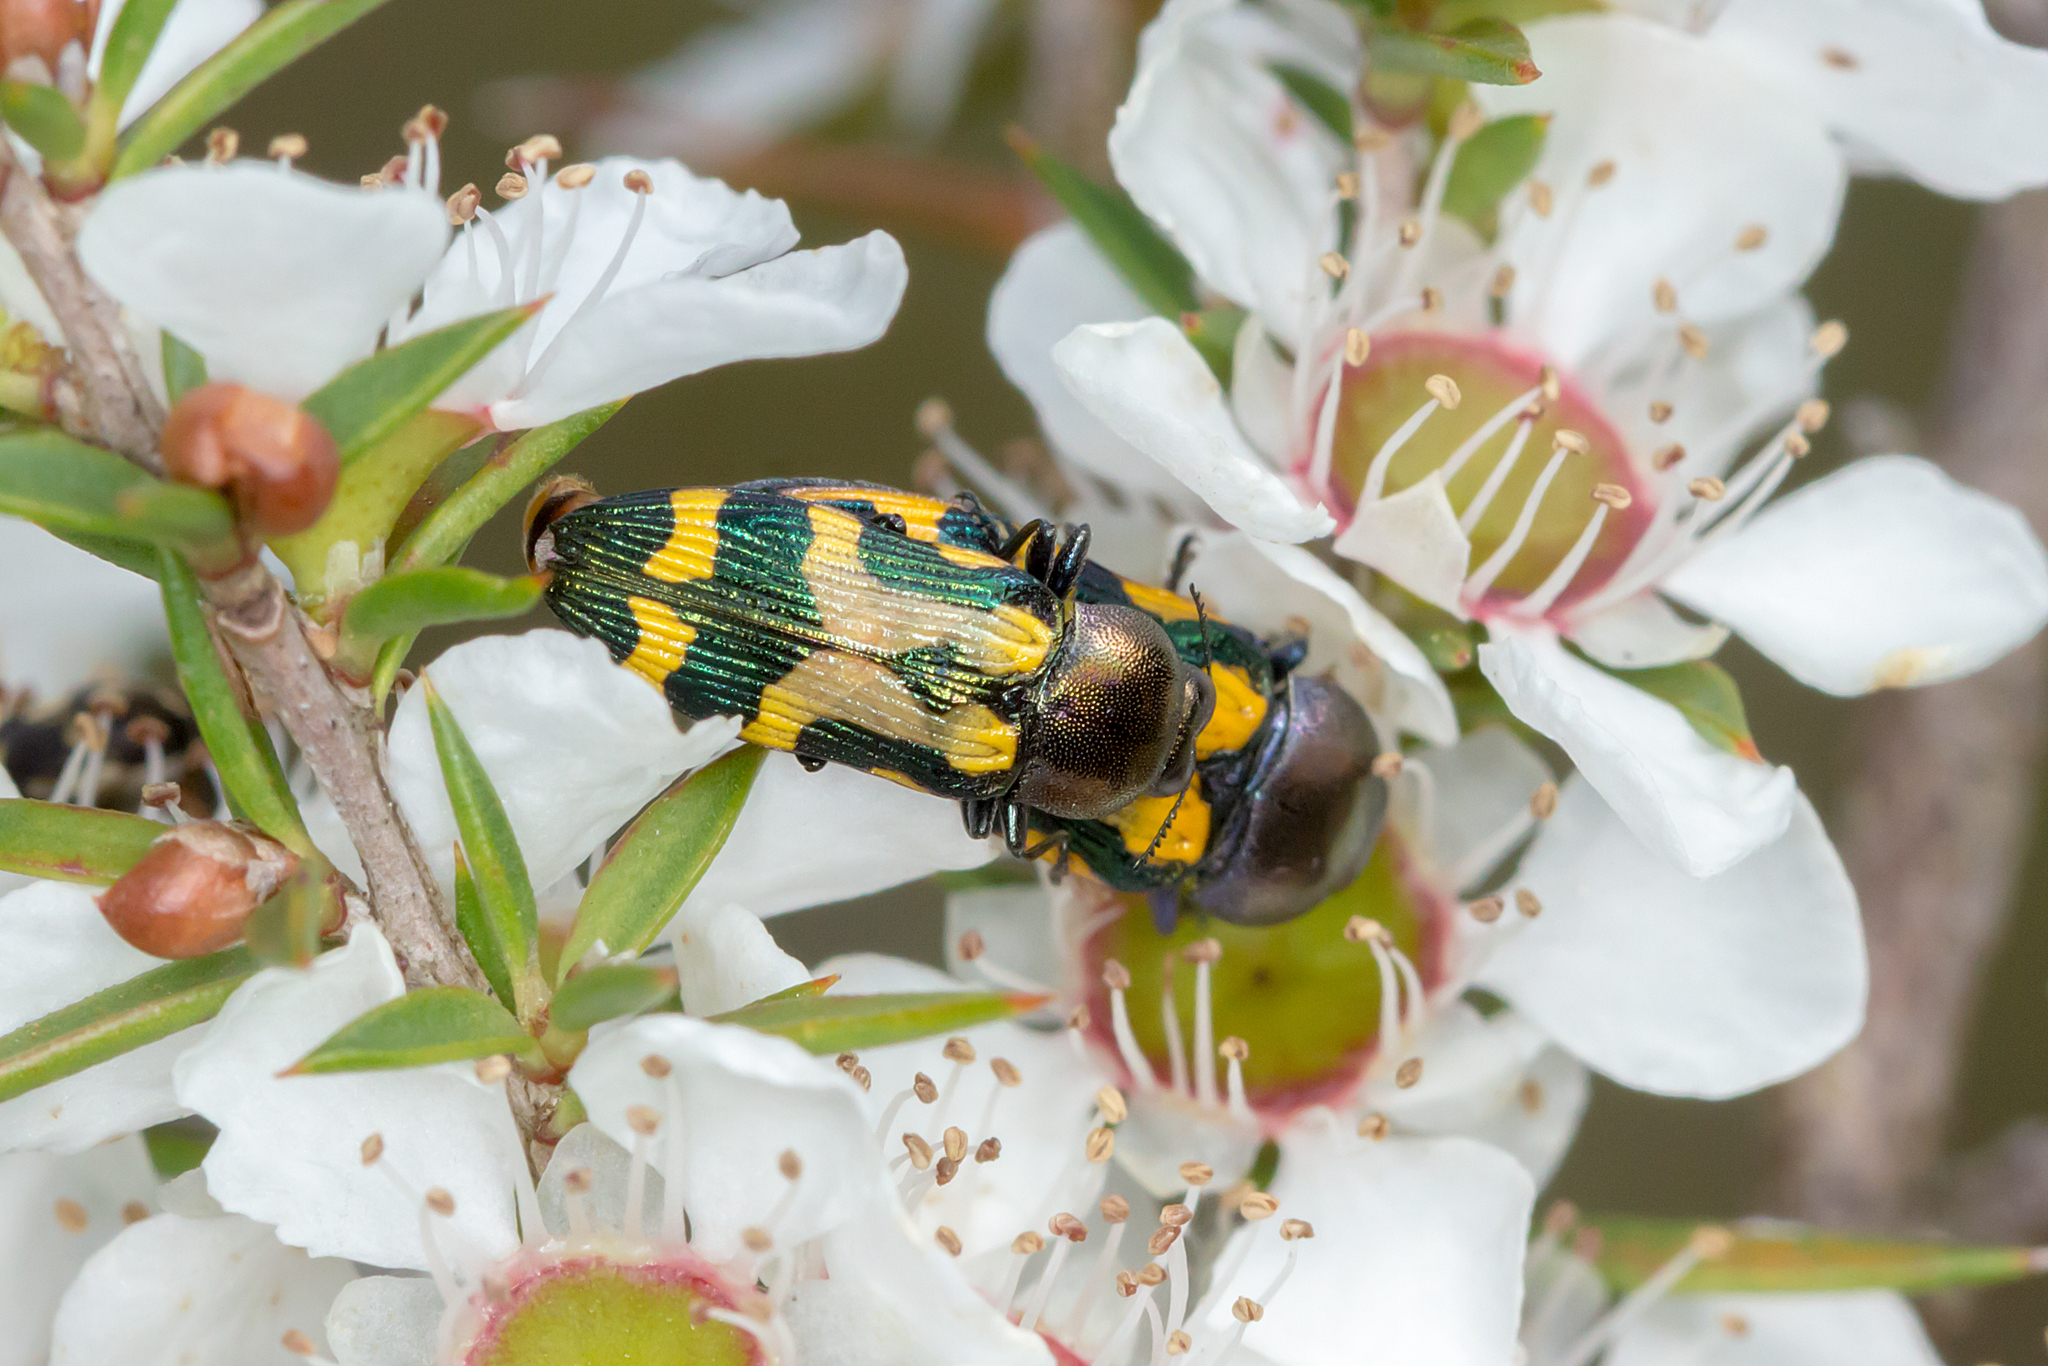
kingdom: Animalia
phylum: Arthropoda
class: Insecta
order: Coleoptera
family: Buprestidae
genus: Castiarina
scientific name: Castiarina flavopicta
